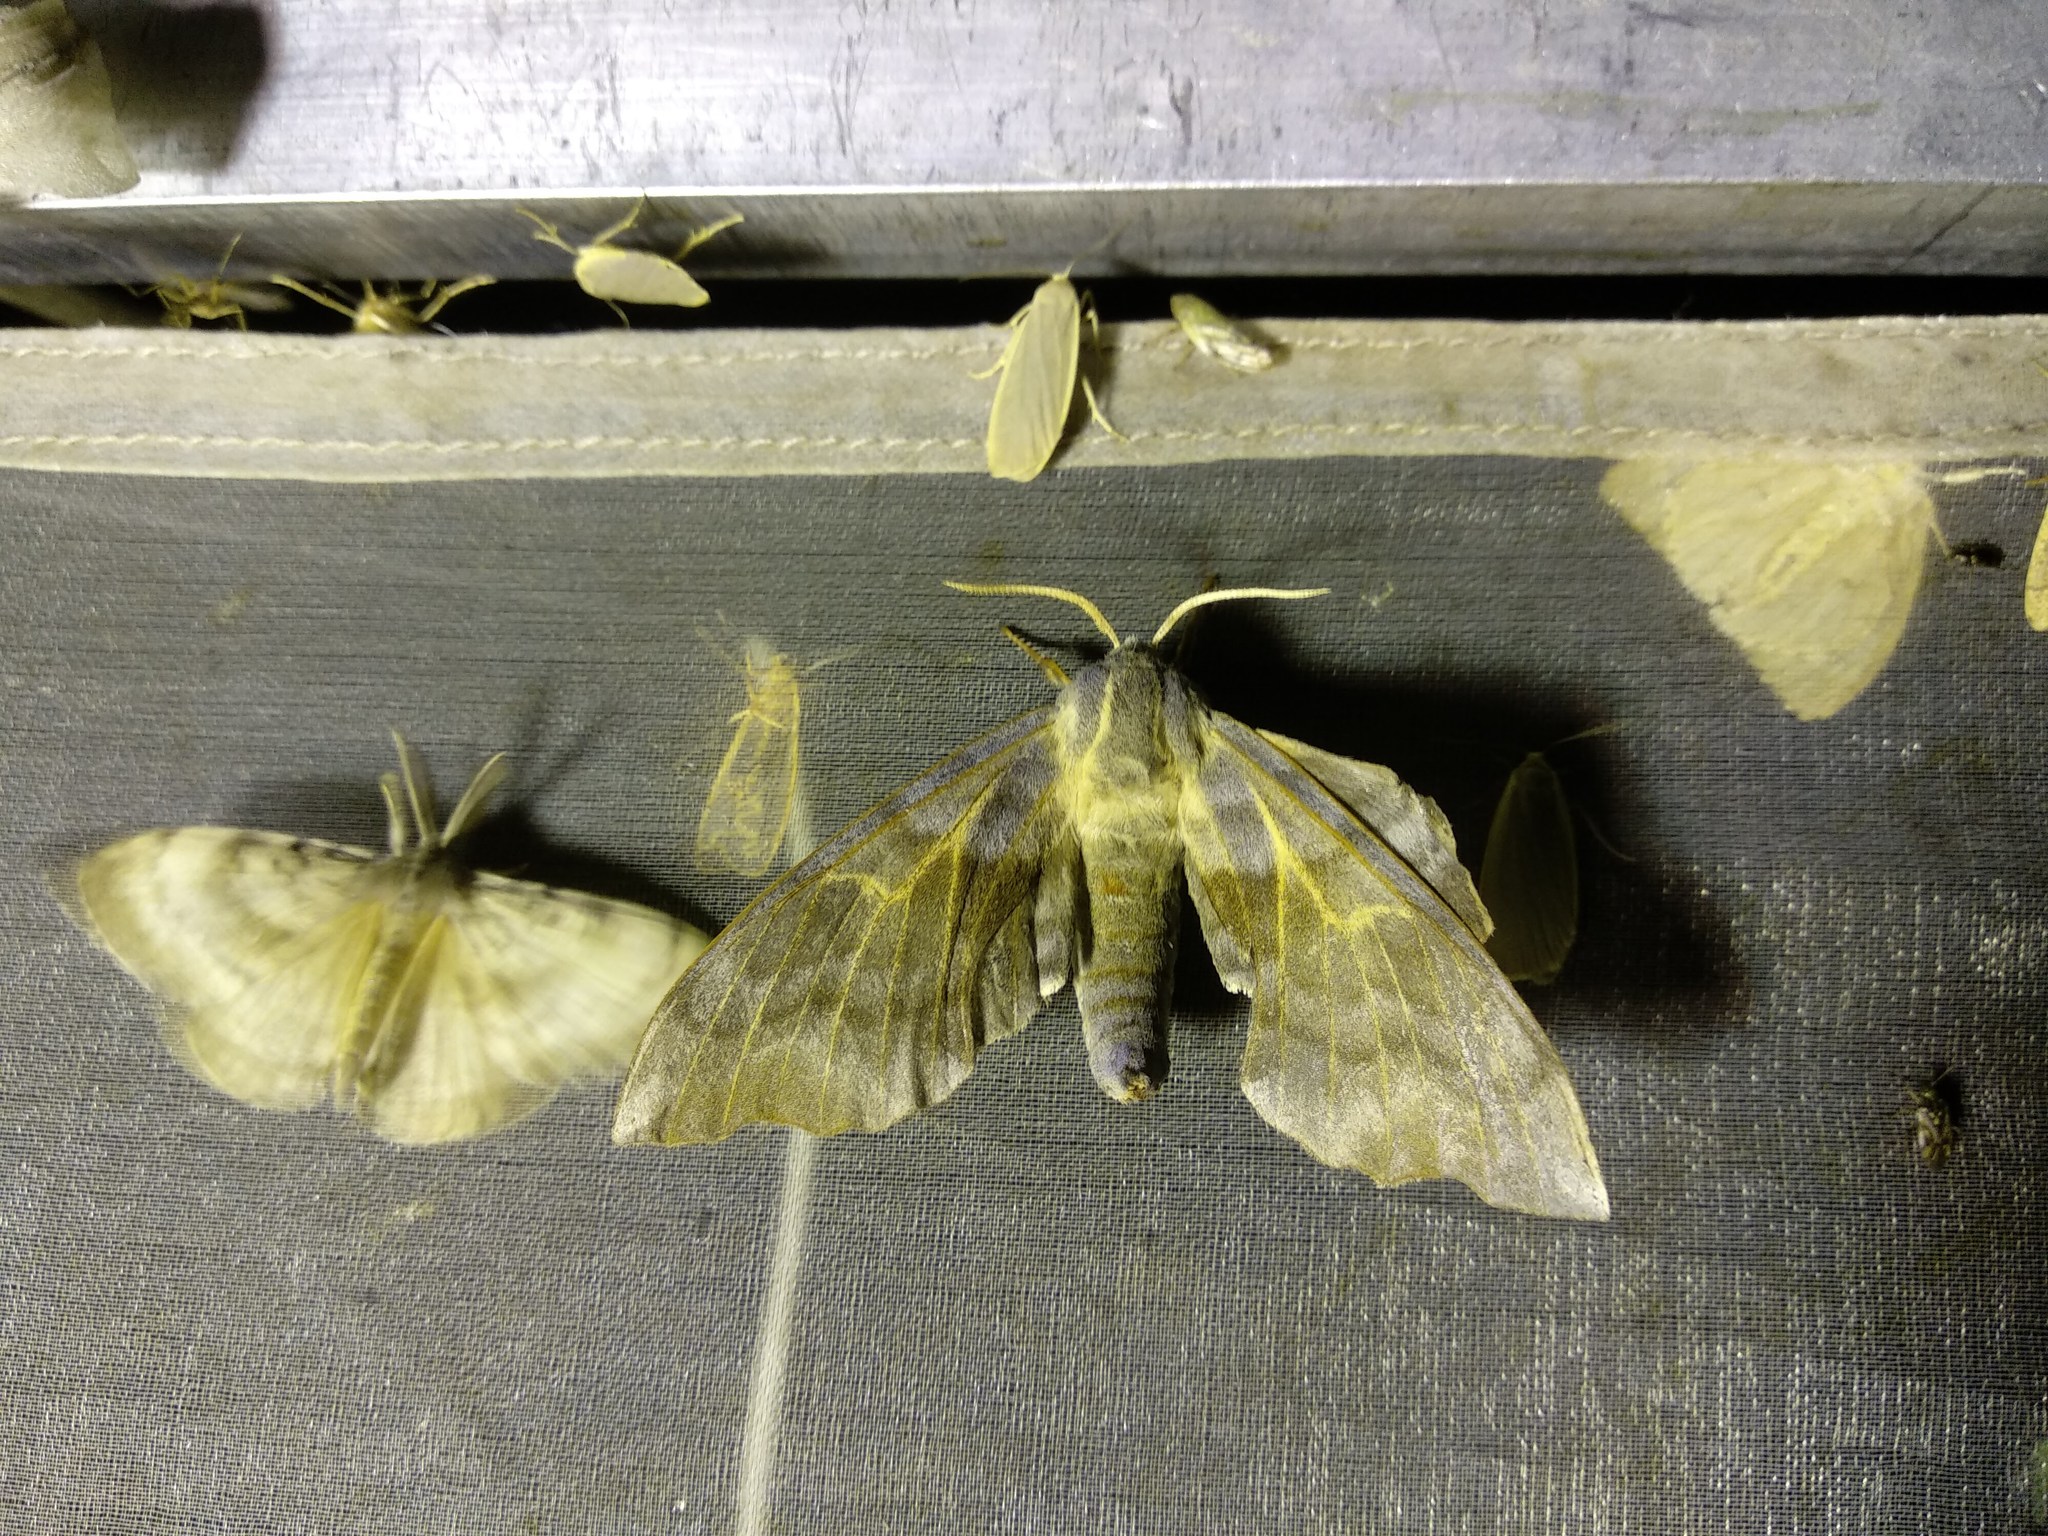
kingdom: Animalia
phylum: Arthropoda
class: Insecta
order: Lepidoptera
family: Sphingidae
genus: Laothoe
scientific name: Laothoe amurensis
